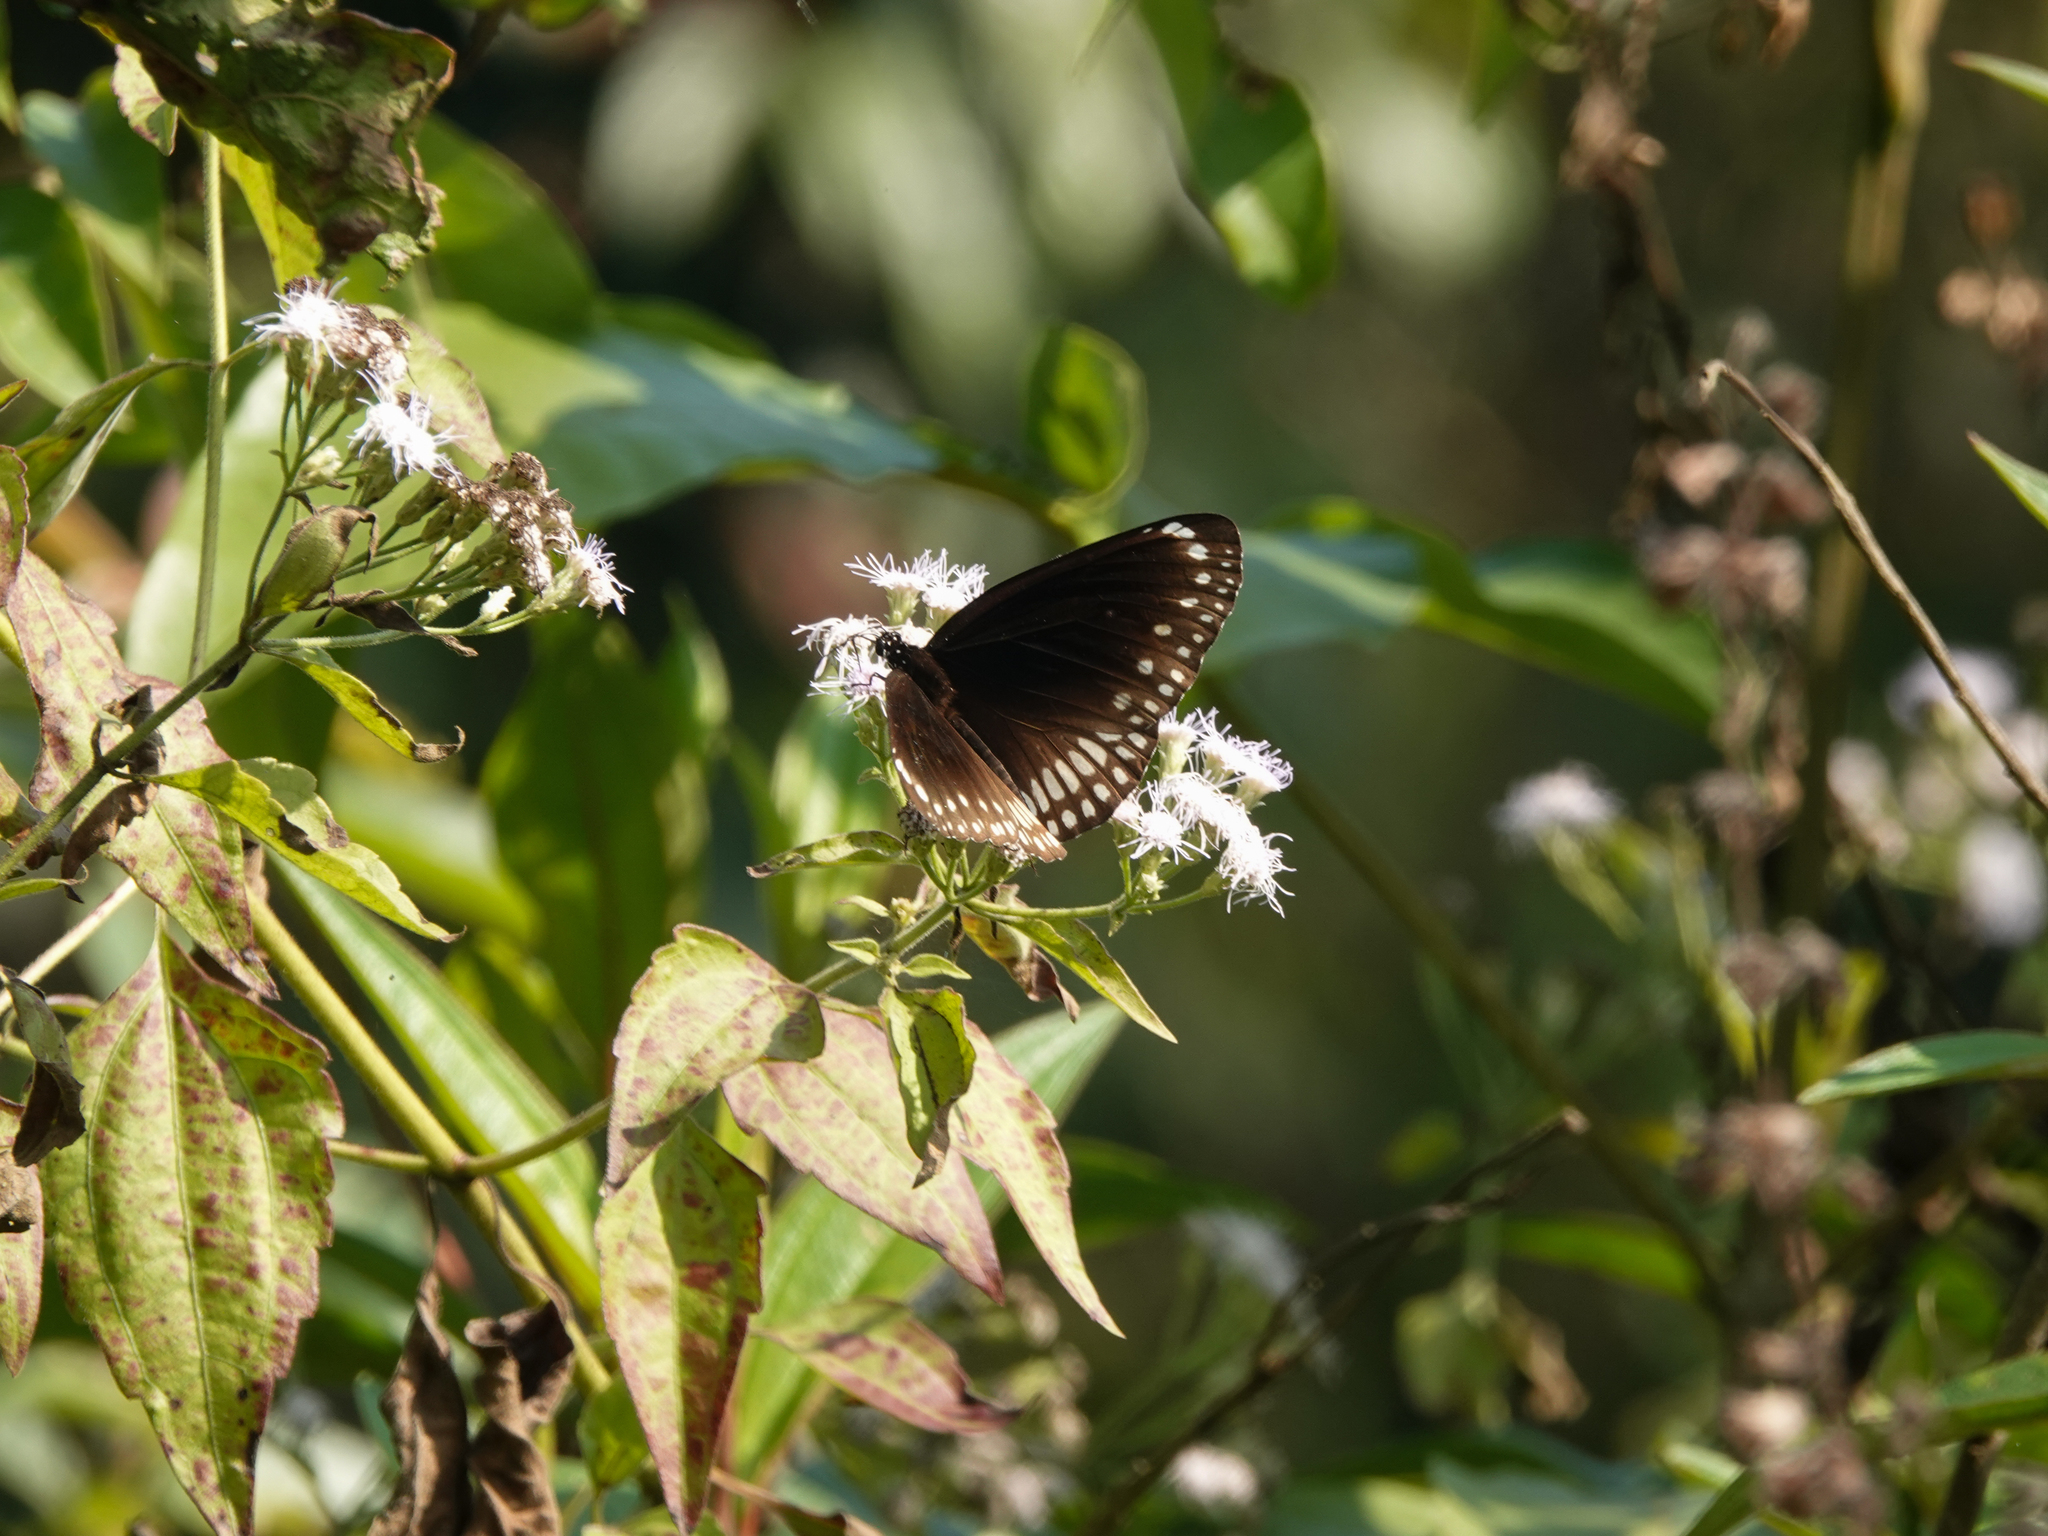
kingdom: Animalia
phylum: Arthropoda
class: Insecta
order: Lepidoptera
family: Nymphalidae
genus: Euploea
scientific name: Euploea core
